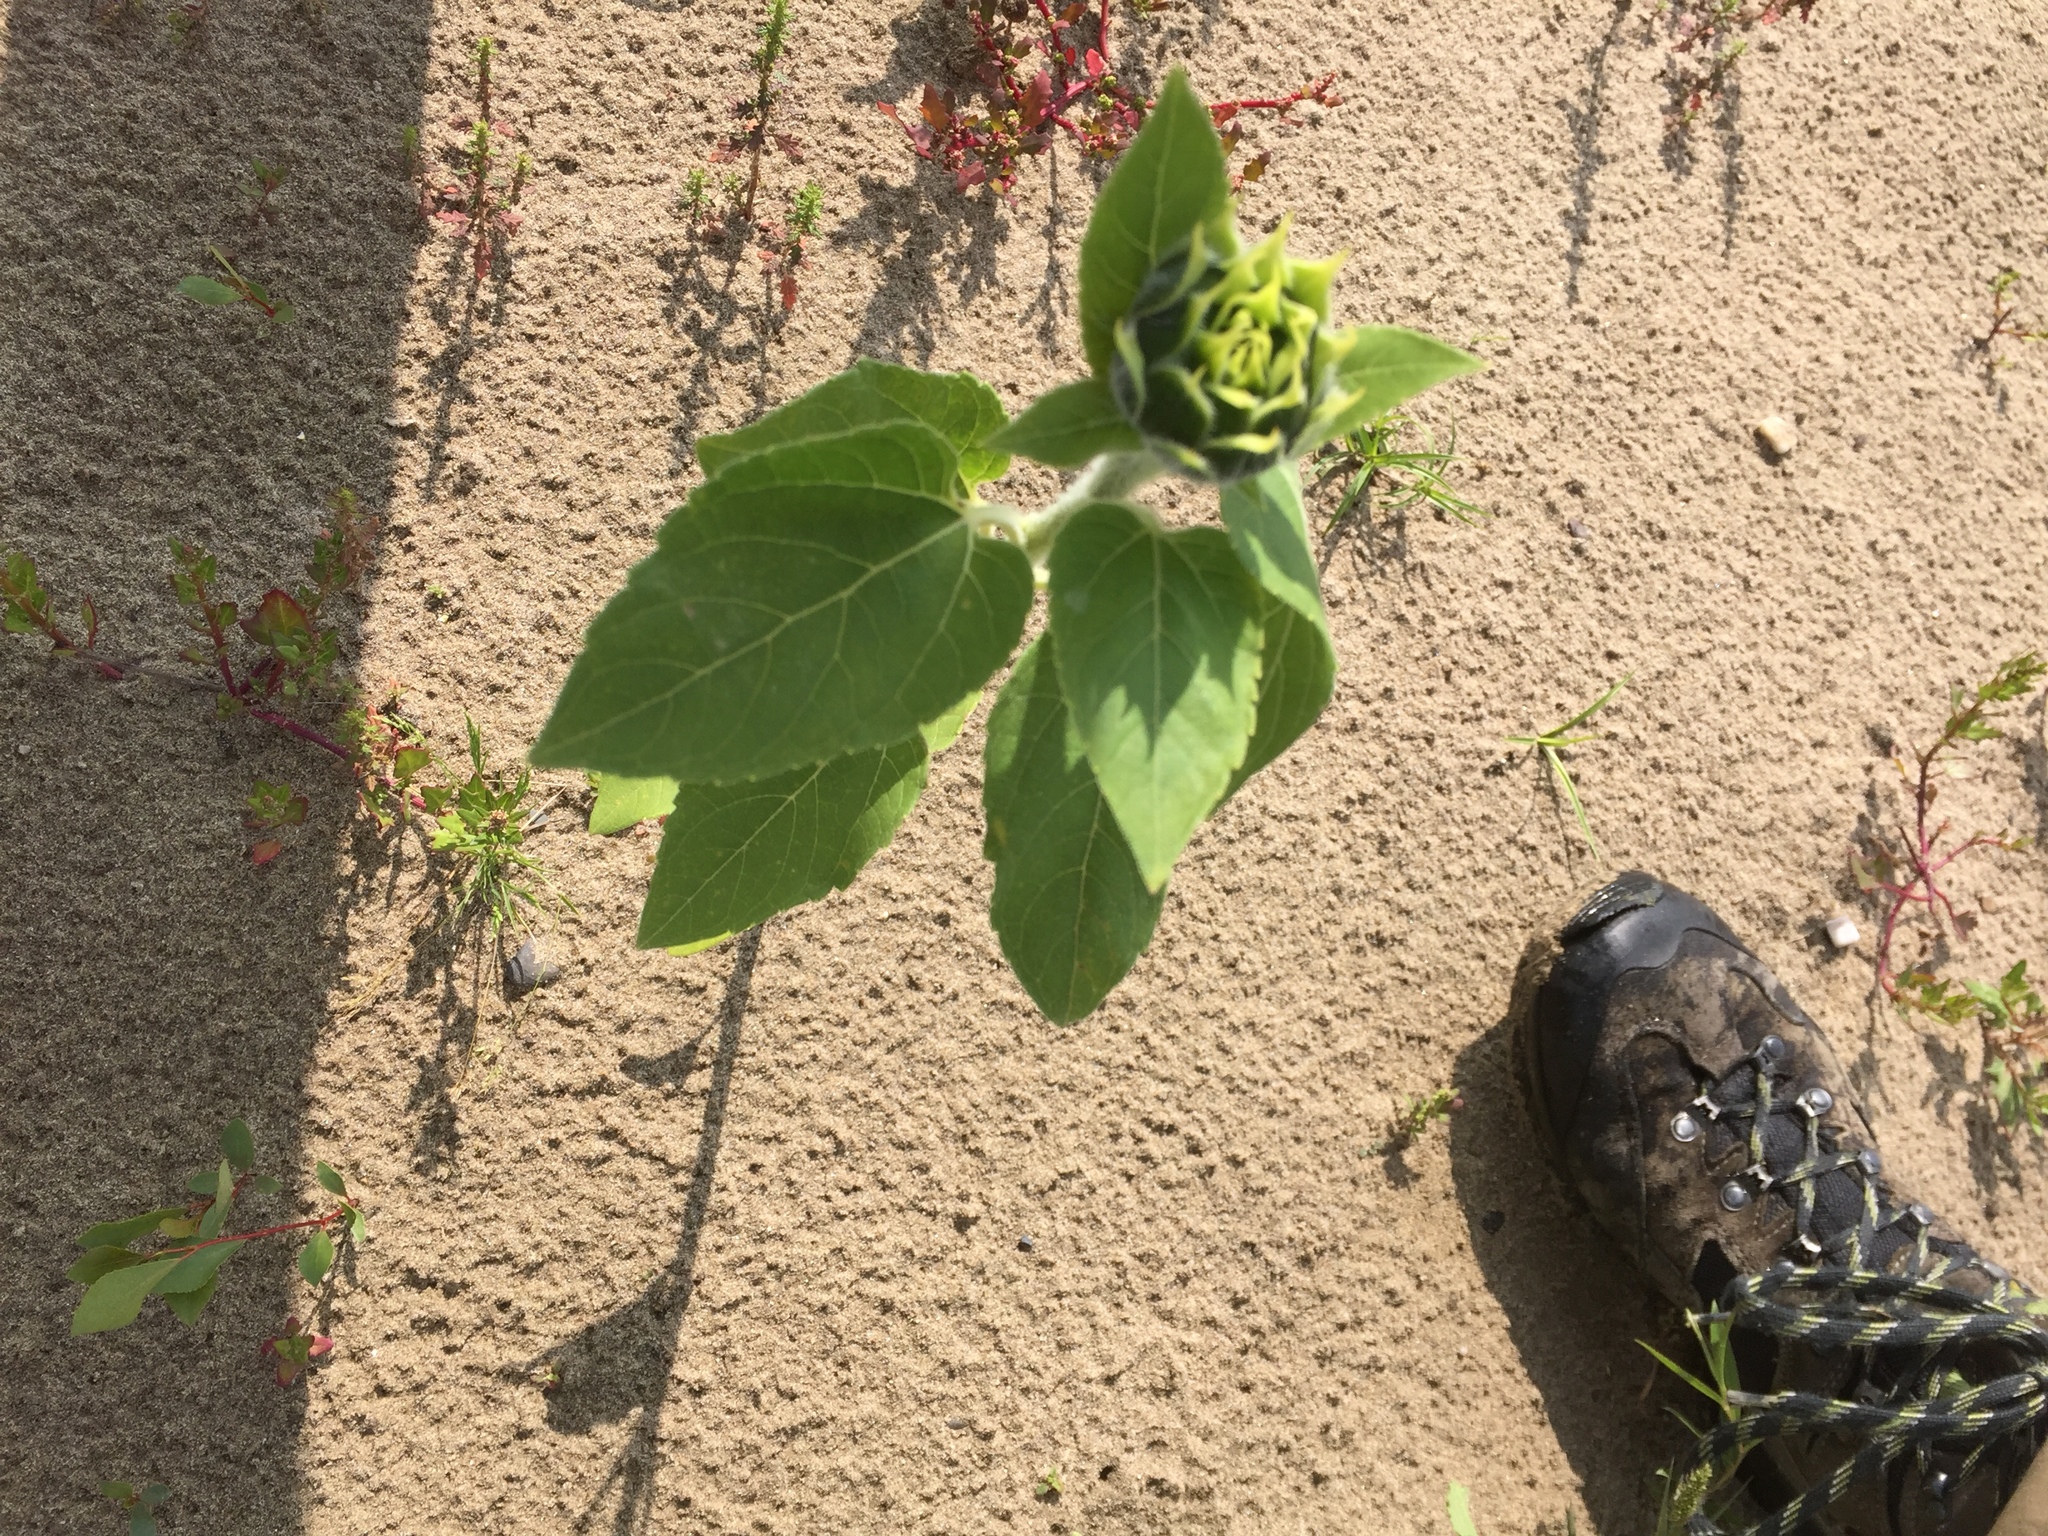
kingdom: Plantae
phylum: Tracheophyta
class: Magnoliopsida
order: Asterales
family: Asteraceae
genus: Helianthus
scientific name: Helianthus annuus
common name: Sunflower
